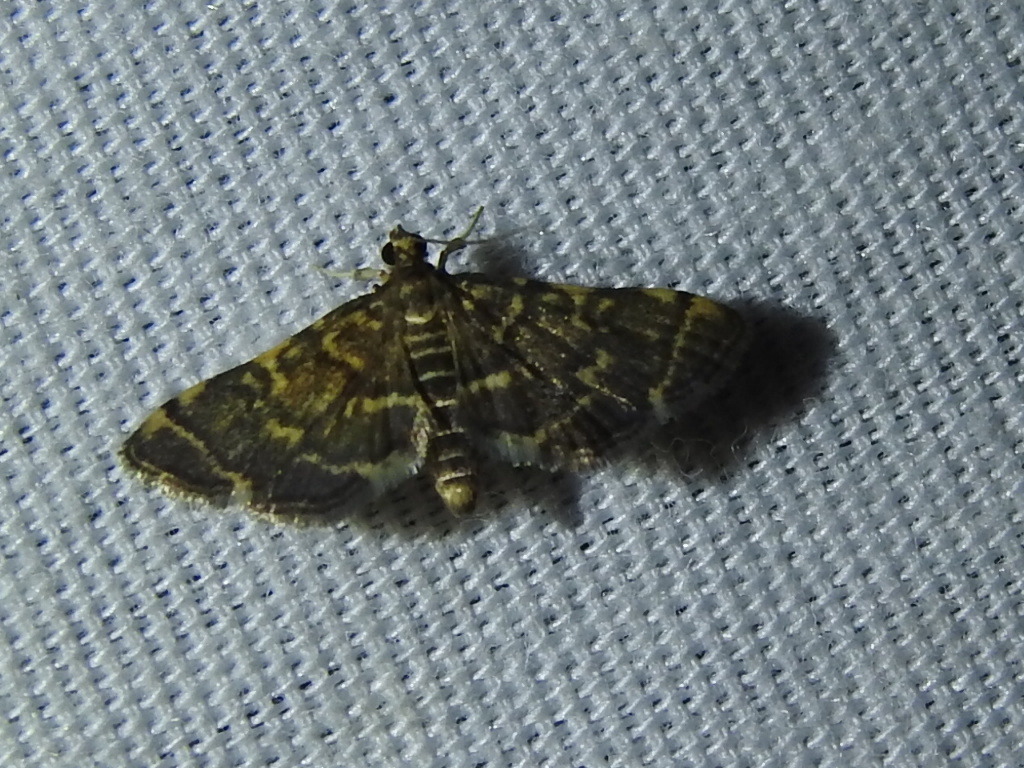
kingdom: Animalia
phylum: Arthropoda
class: Insecta
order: Lepidoptera
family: Crambidae
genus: Anageshna
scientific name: Anageshna primordialis
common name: Yellow-spotted webworm moth
